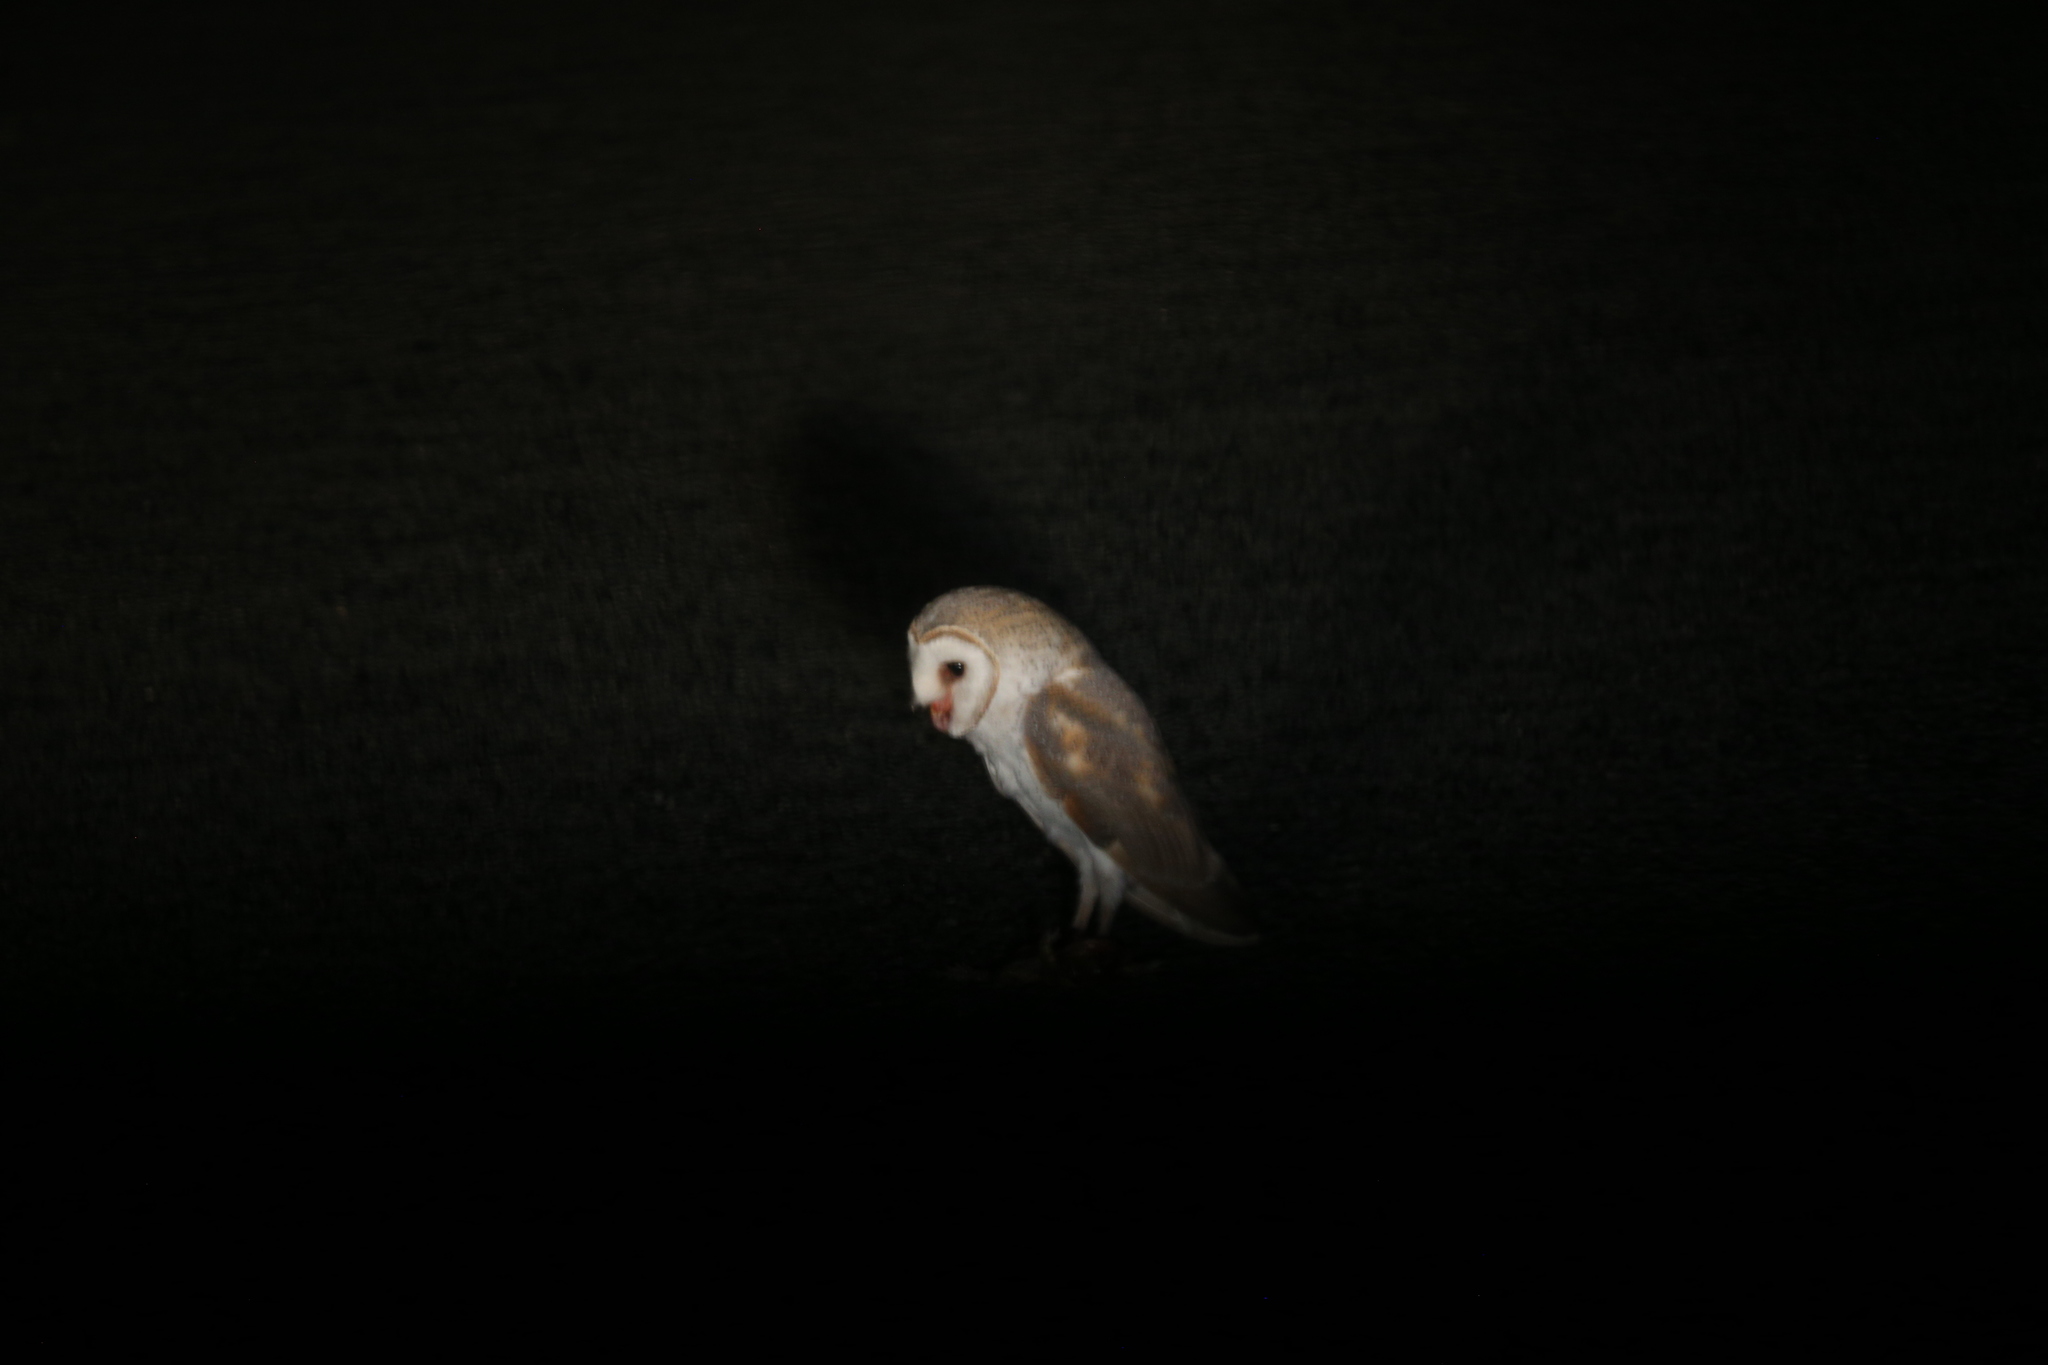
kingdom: Animalia
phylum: Chordata
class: Aves
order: Strigiformes
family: Tytonidae
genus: Tyto
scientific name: Tyto alba
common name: Barn owl
